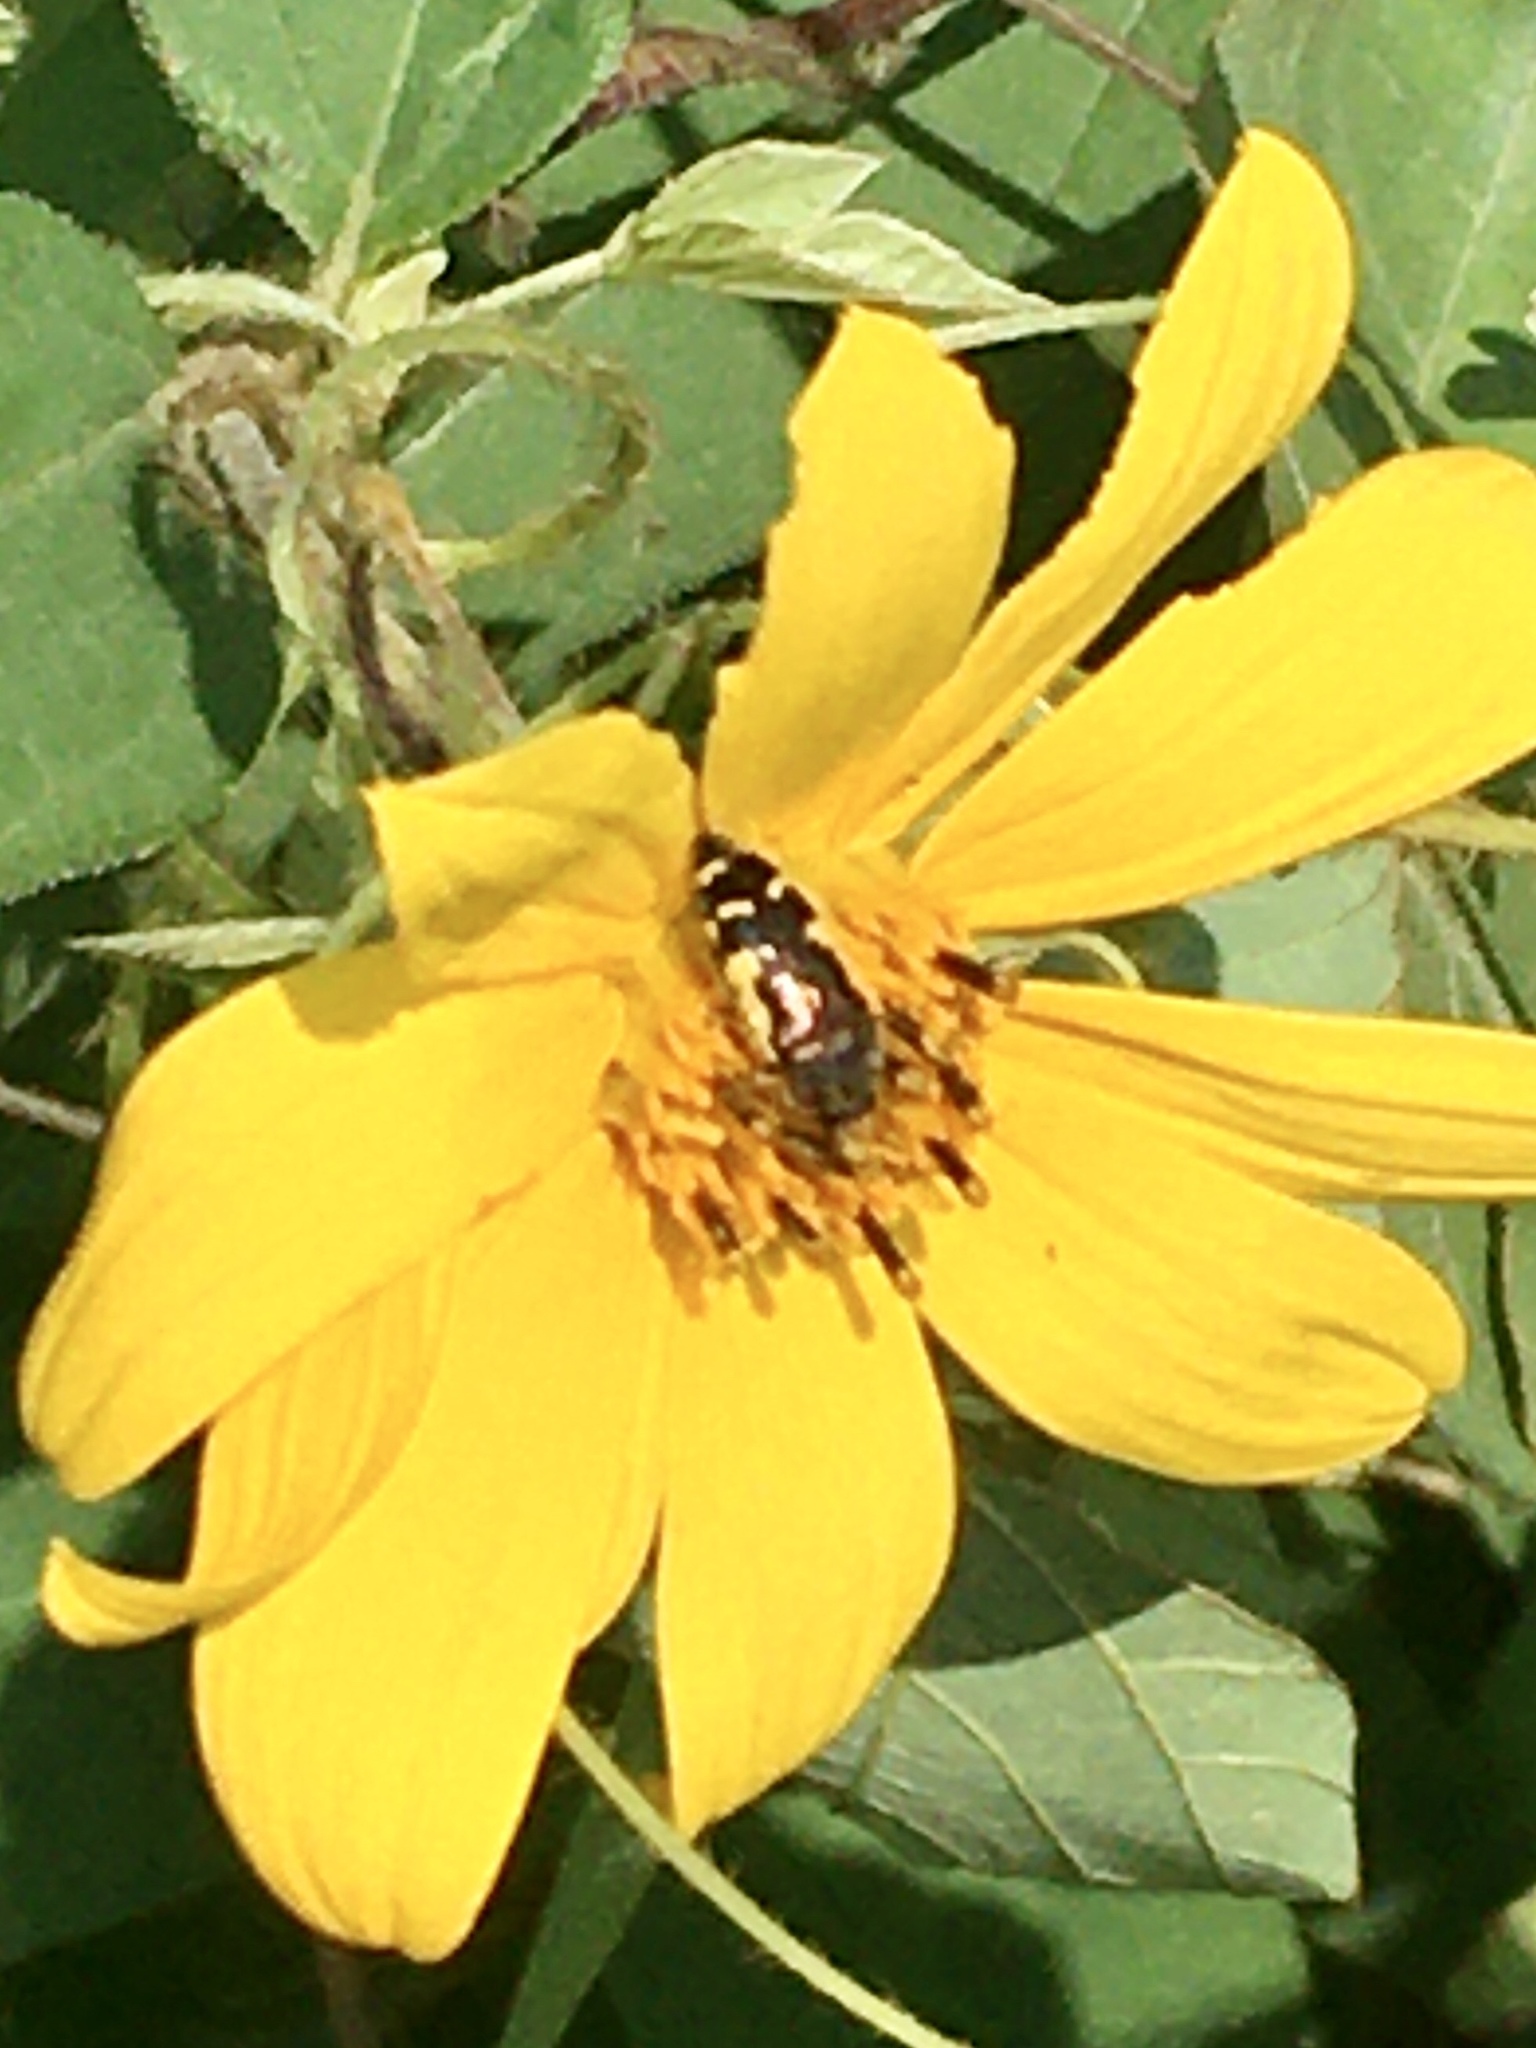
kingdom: Animalia
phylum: Arthropoda
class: Insecta
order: Coleoptera
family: Buprestidae
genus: Acmaeodera
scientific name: Acmaeodera pulchella
